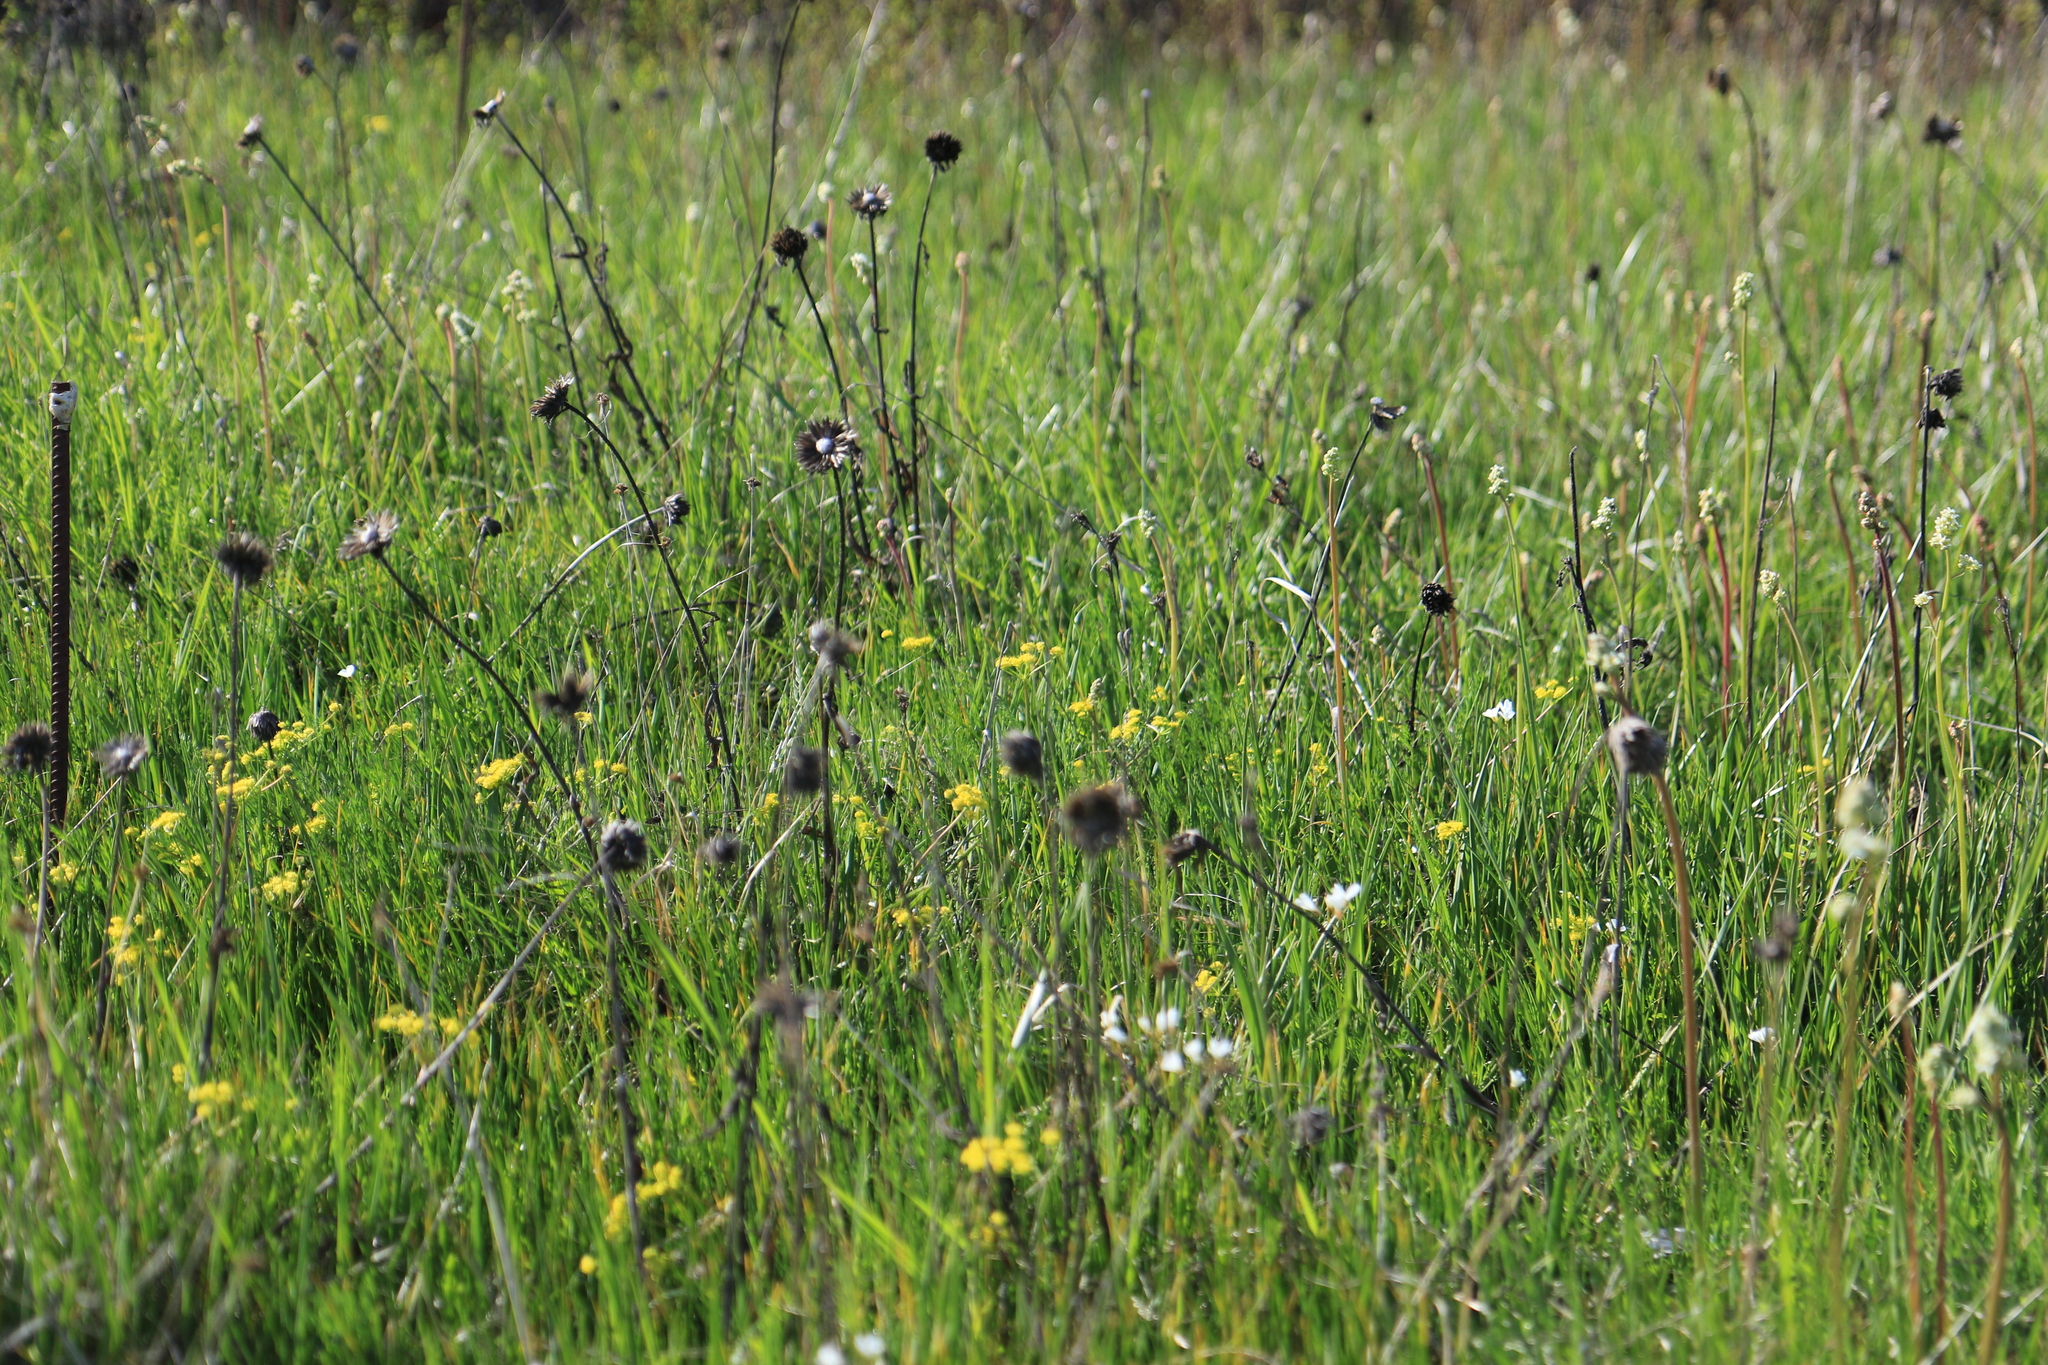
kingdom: Plantae
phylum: Tracheophyta
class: Magnoliopsida
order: Apiales
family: Apiaceae
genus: Lomatium
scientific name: Lomatium bradshawii
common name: Bradshaw's desert-parsley
